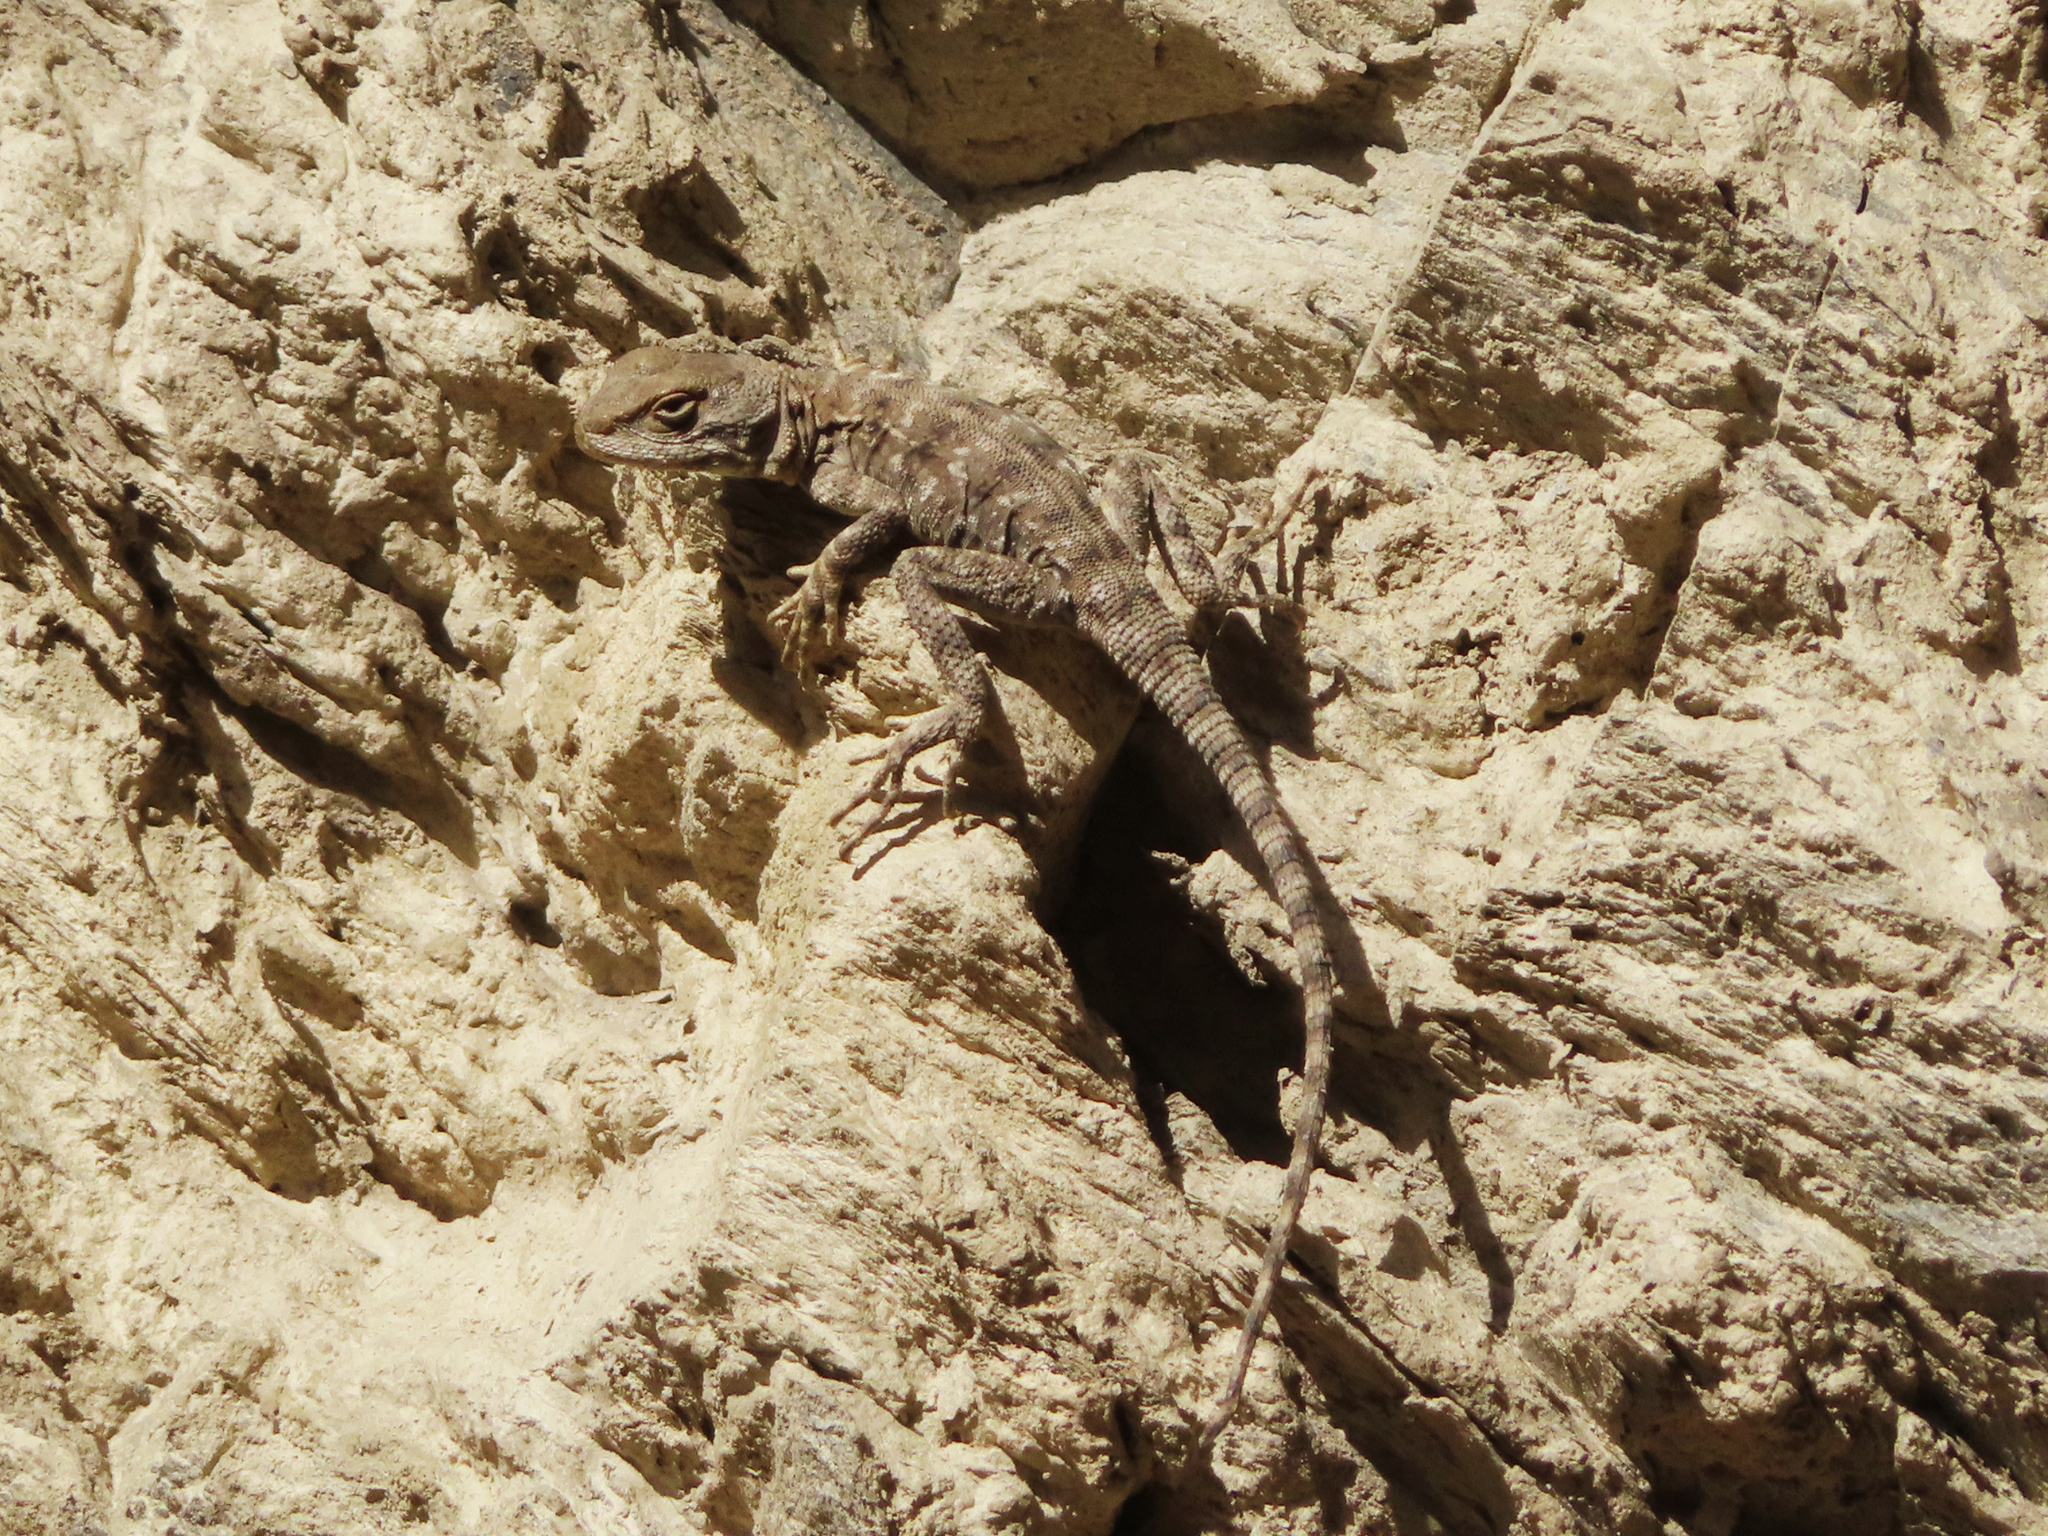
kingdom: Animalia
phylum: Chordata
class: Squamata
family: Agamidae
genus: Paralaudakia
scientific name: Paralaudakia caucasia
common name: Caucasian agama
